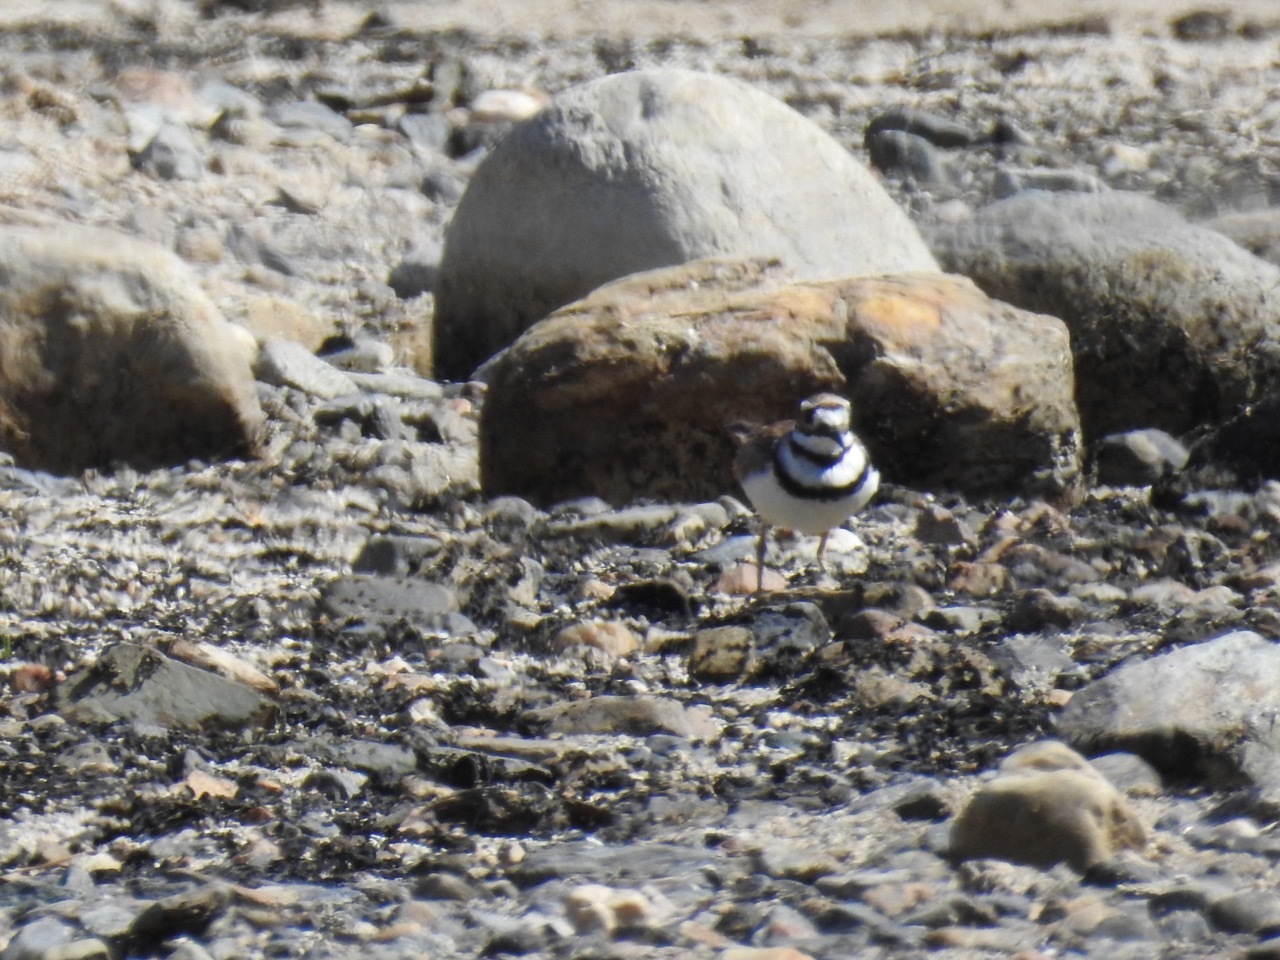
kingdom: Animalia
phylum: Chordata
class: Aves
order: Charadriiformes
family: Charadriidae
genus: Charadrius
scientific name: Charadrius vociferus
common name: Killdeer
